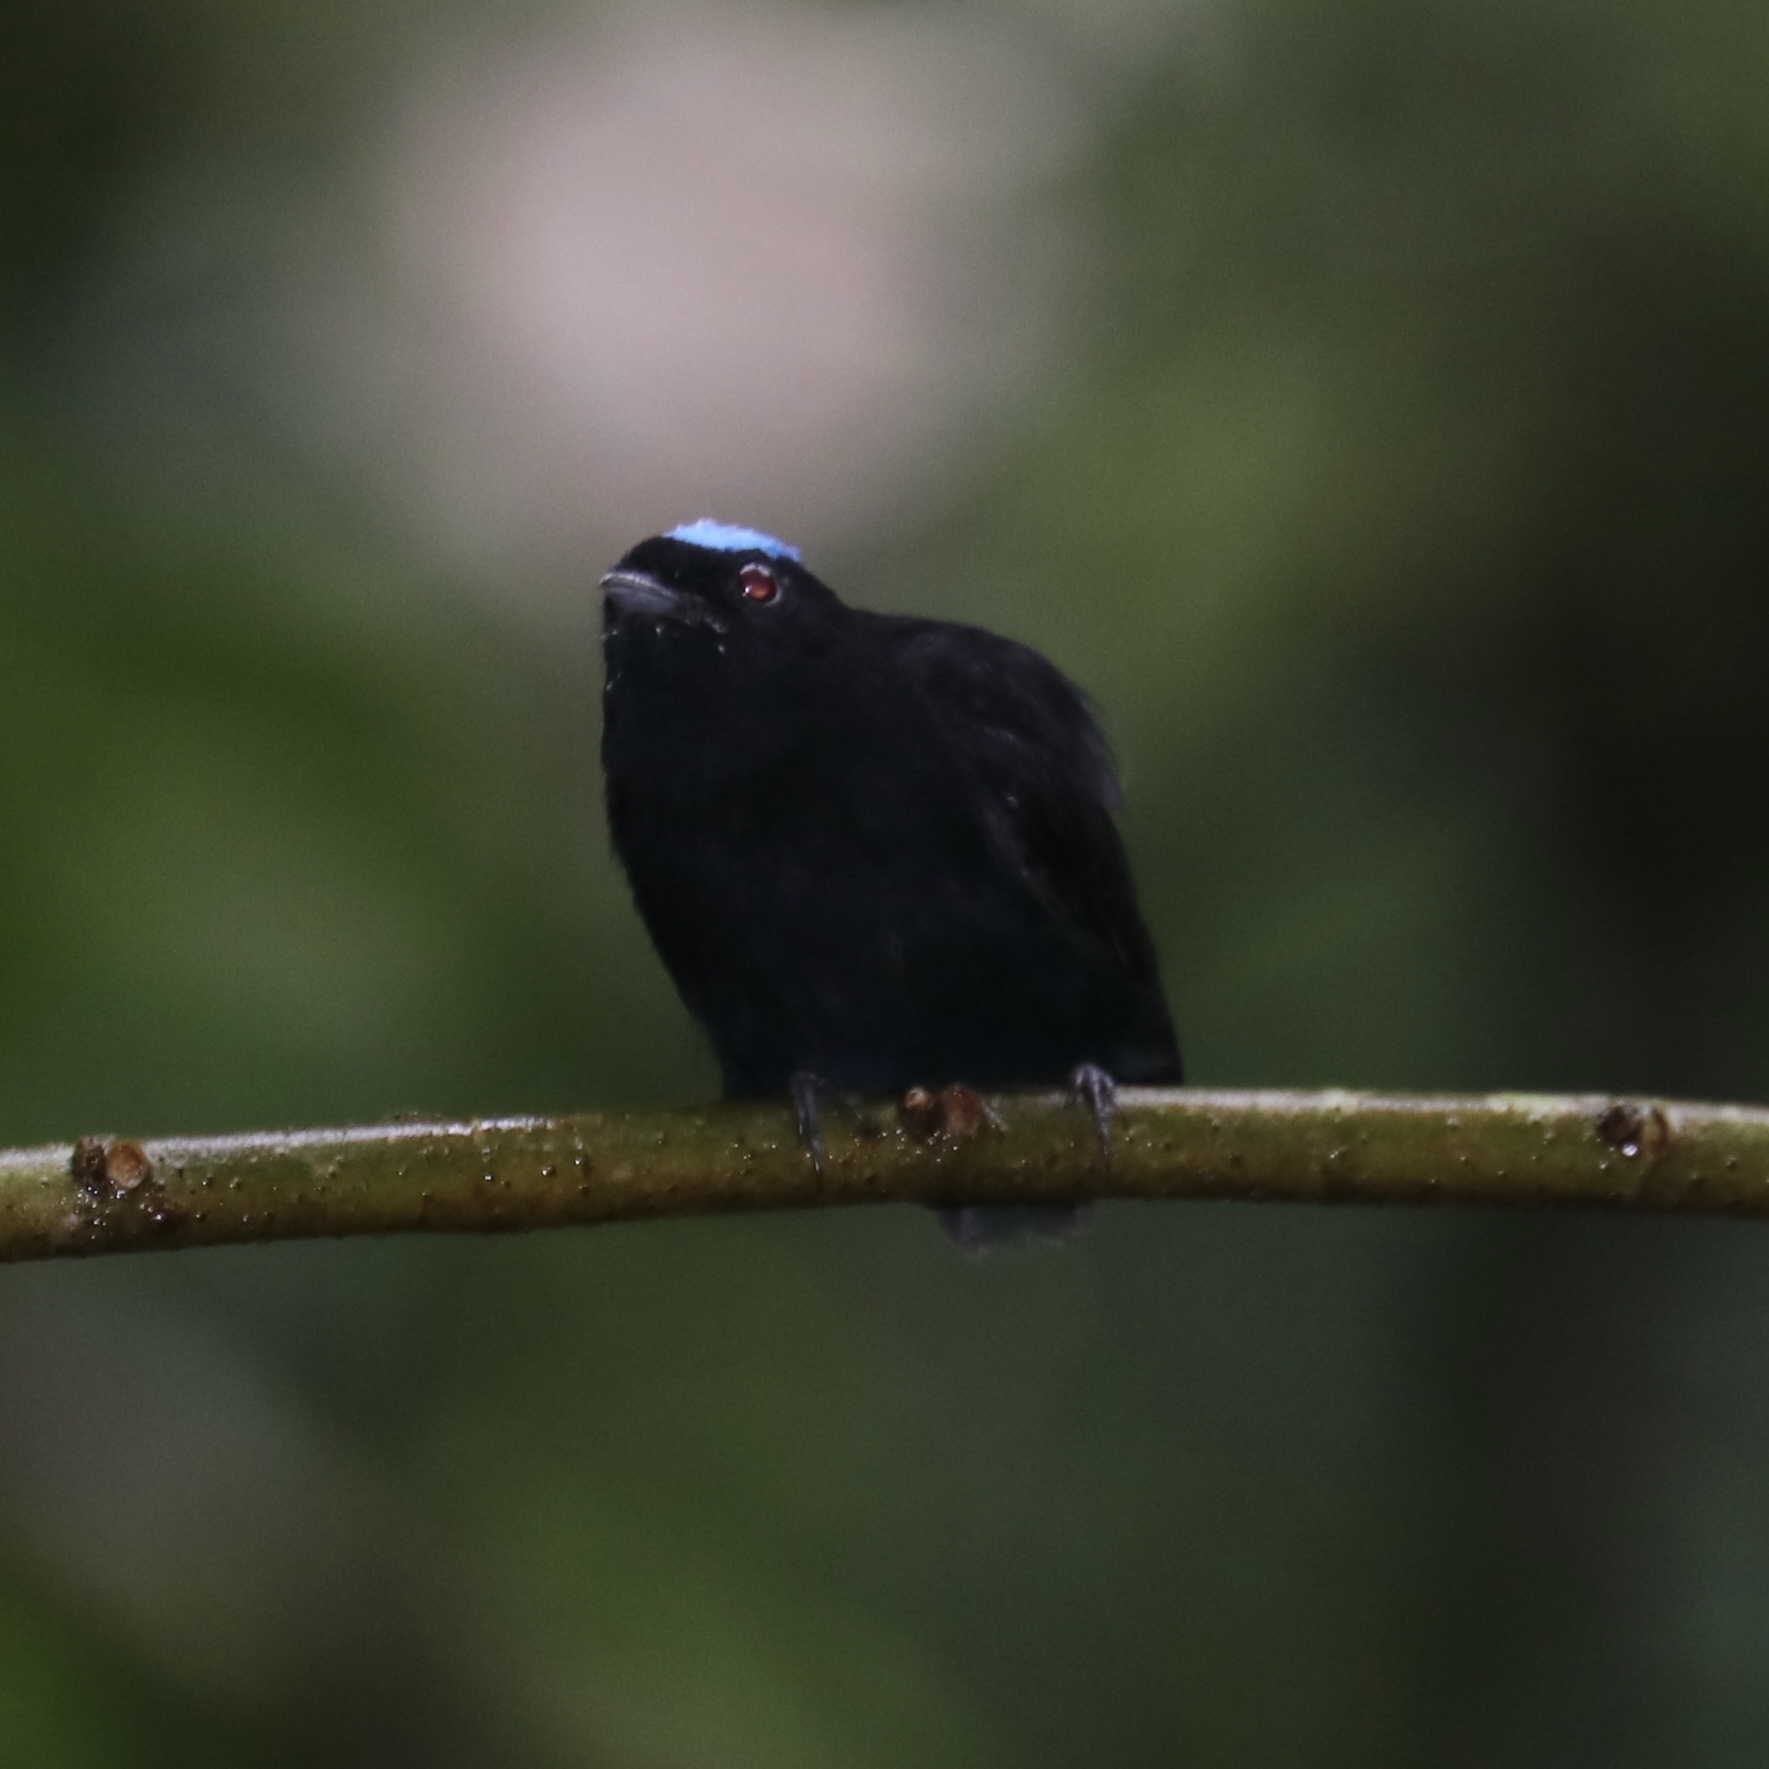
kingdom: Animalia
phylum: Chordata
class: Aves
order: Passeriformes
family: Pipridae
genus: Lepidothrix
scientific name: Lepidothrix coronata
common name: Blue-crowned manakin
